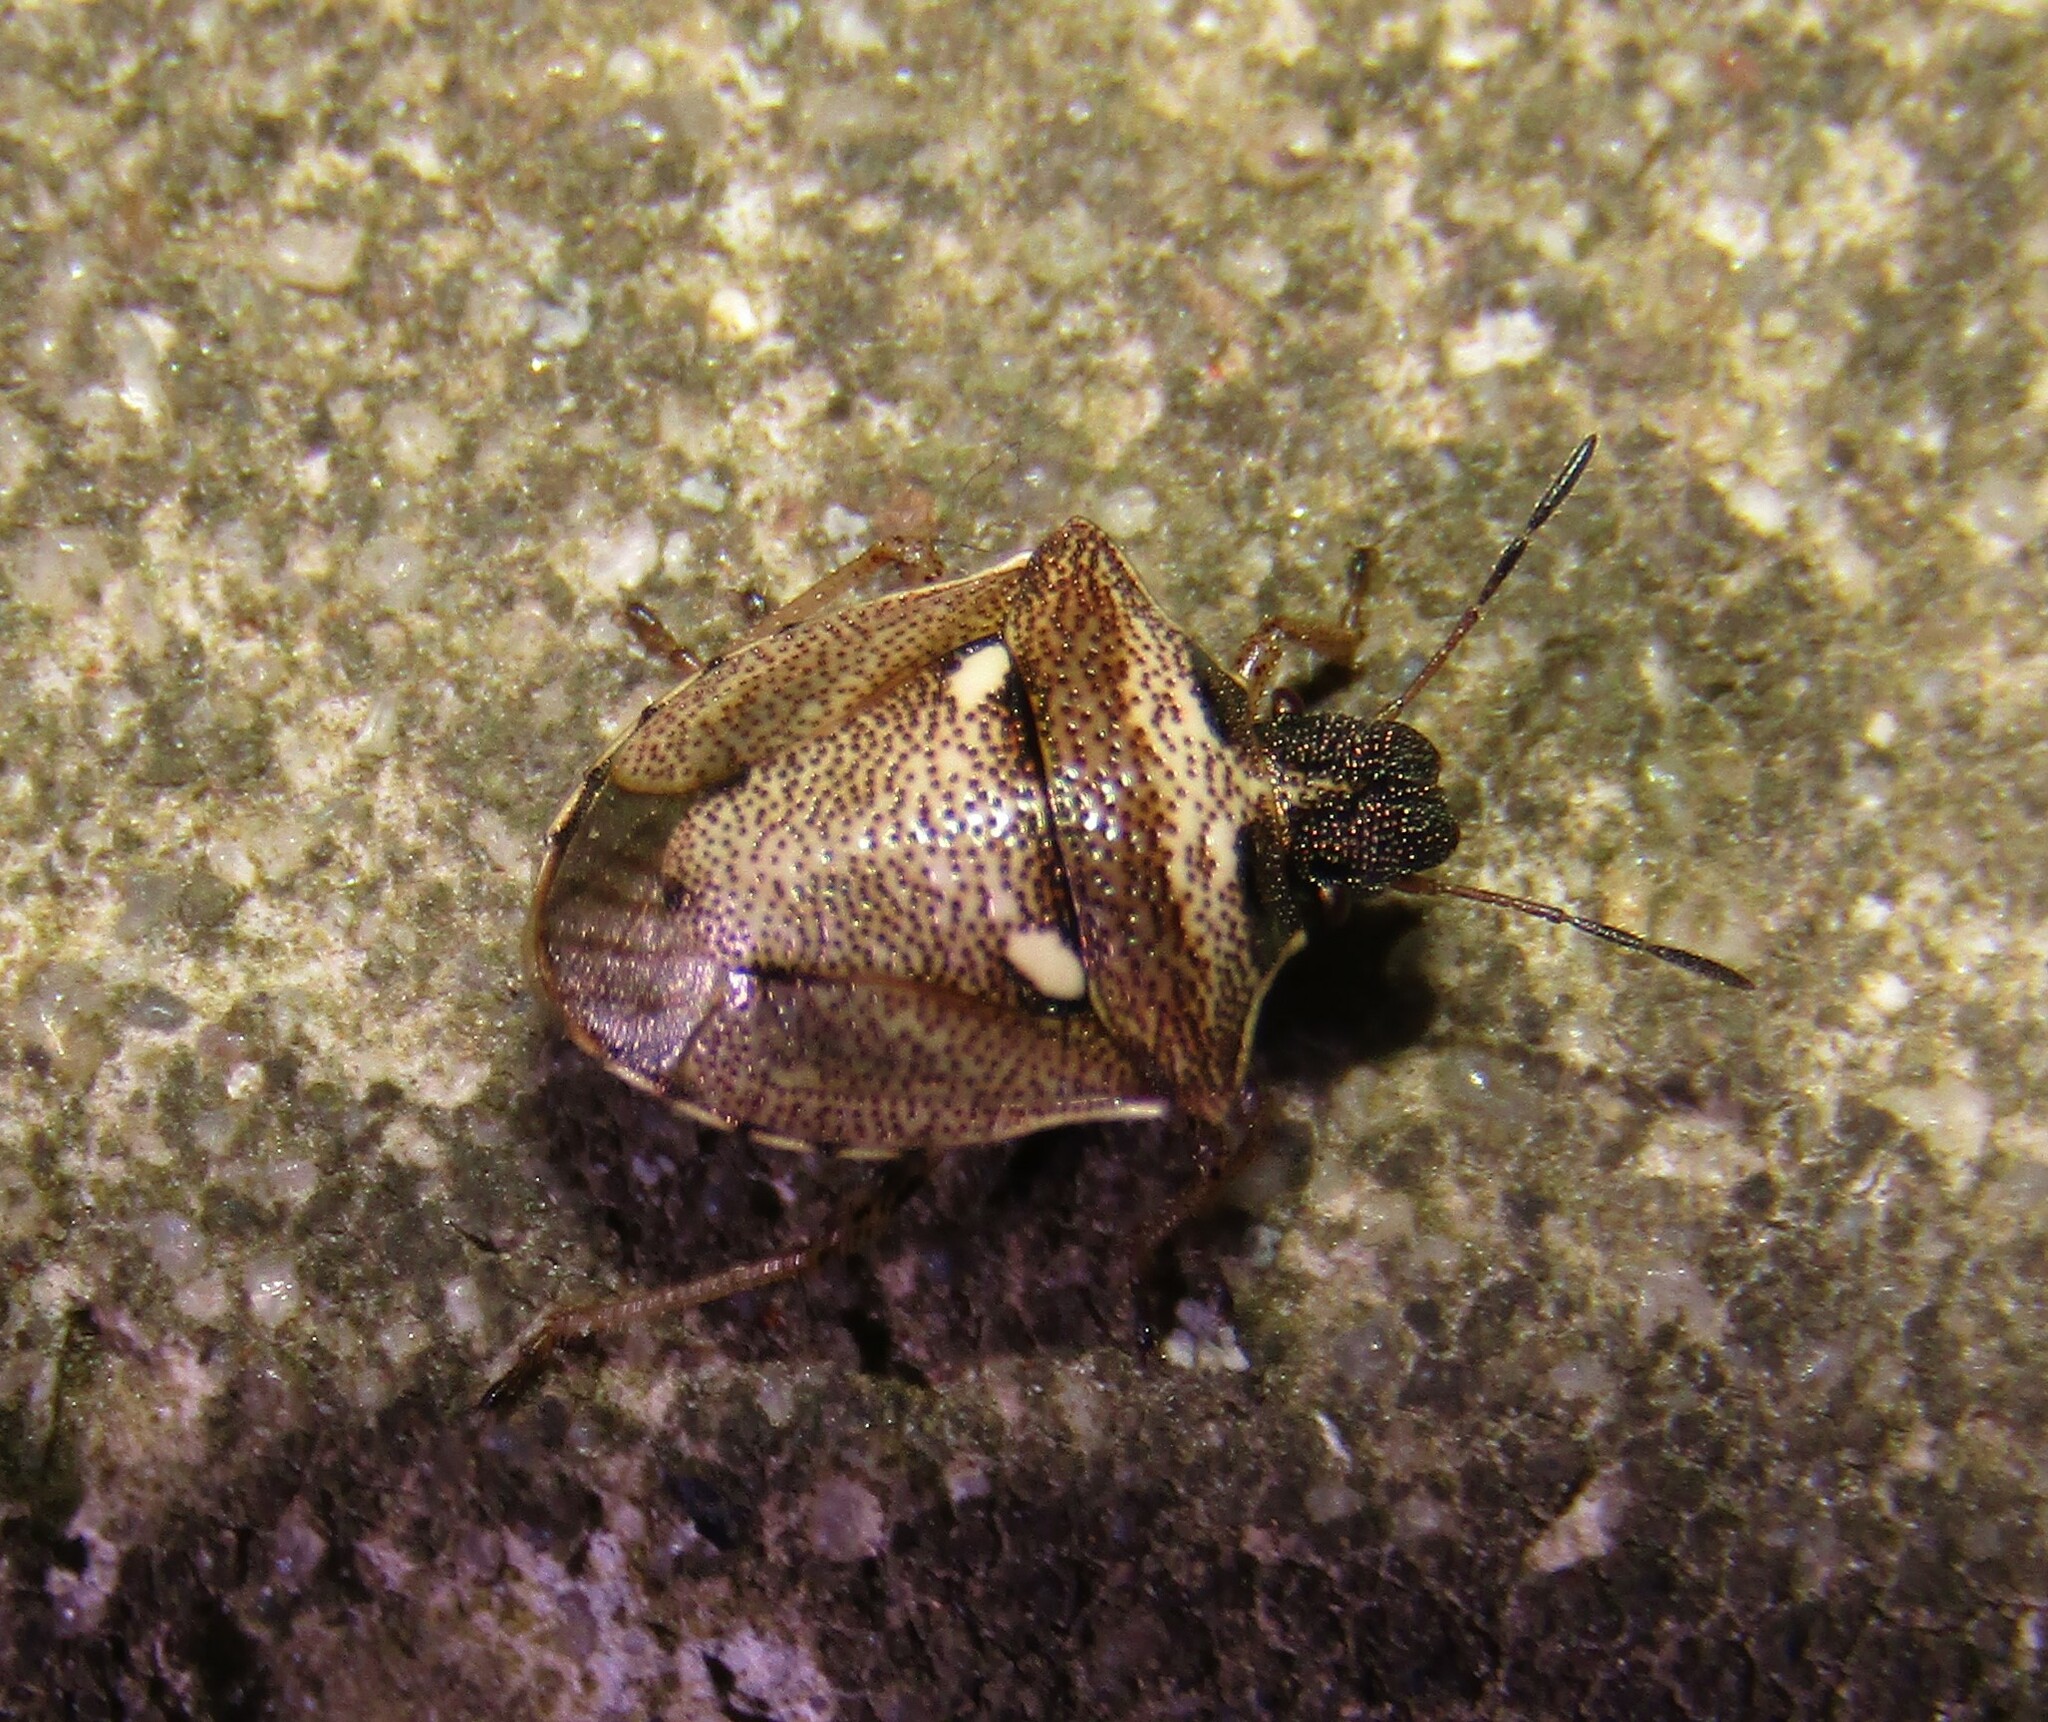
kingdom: Animalia
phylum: Arthropoda
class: Insecta
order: Hemiptera
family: Pentatomidae
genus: Eysarcoris
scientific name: Eysarcoris aeneus
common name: New forest shieldbug
